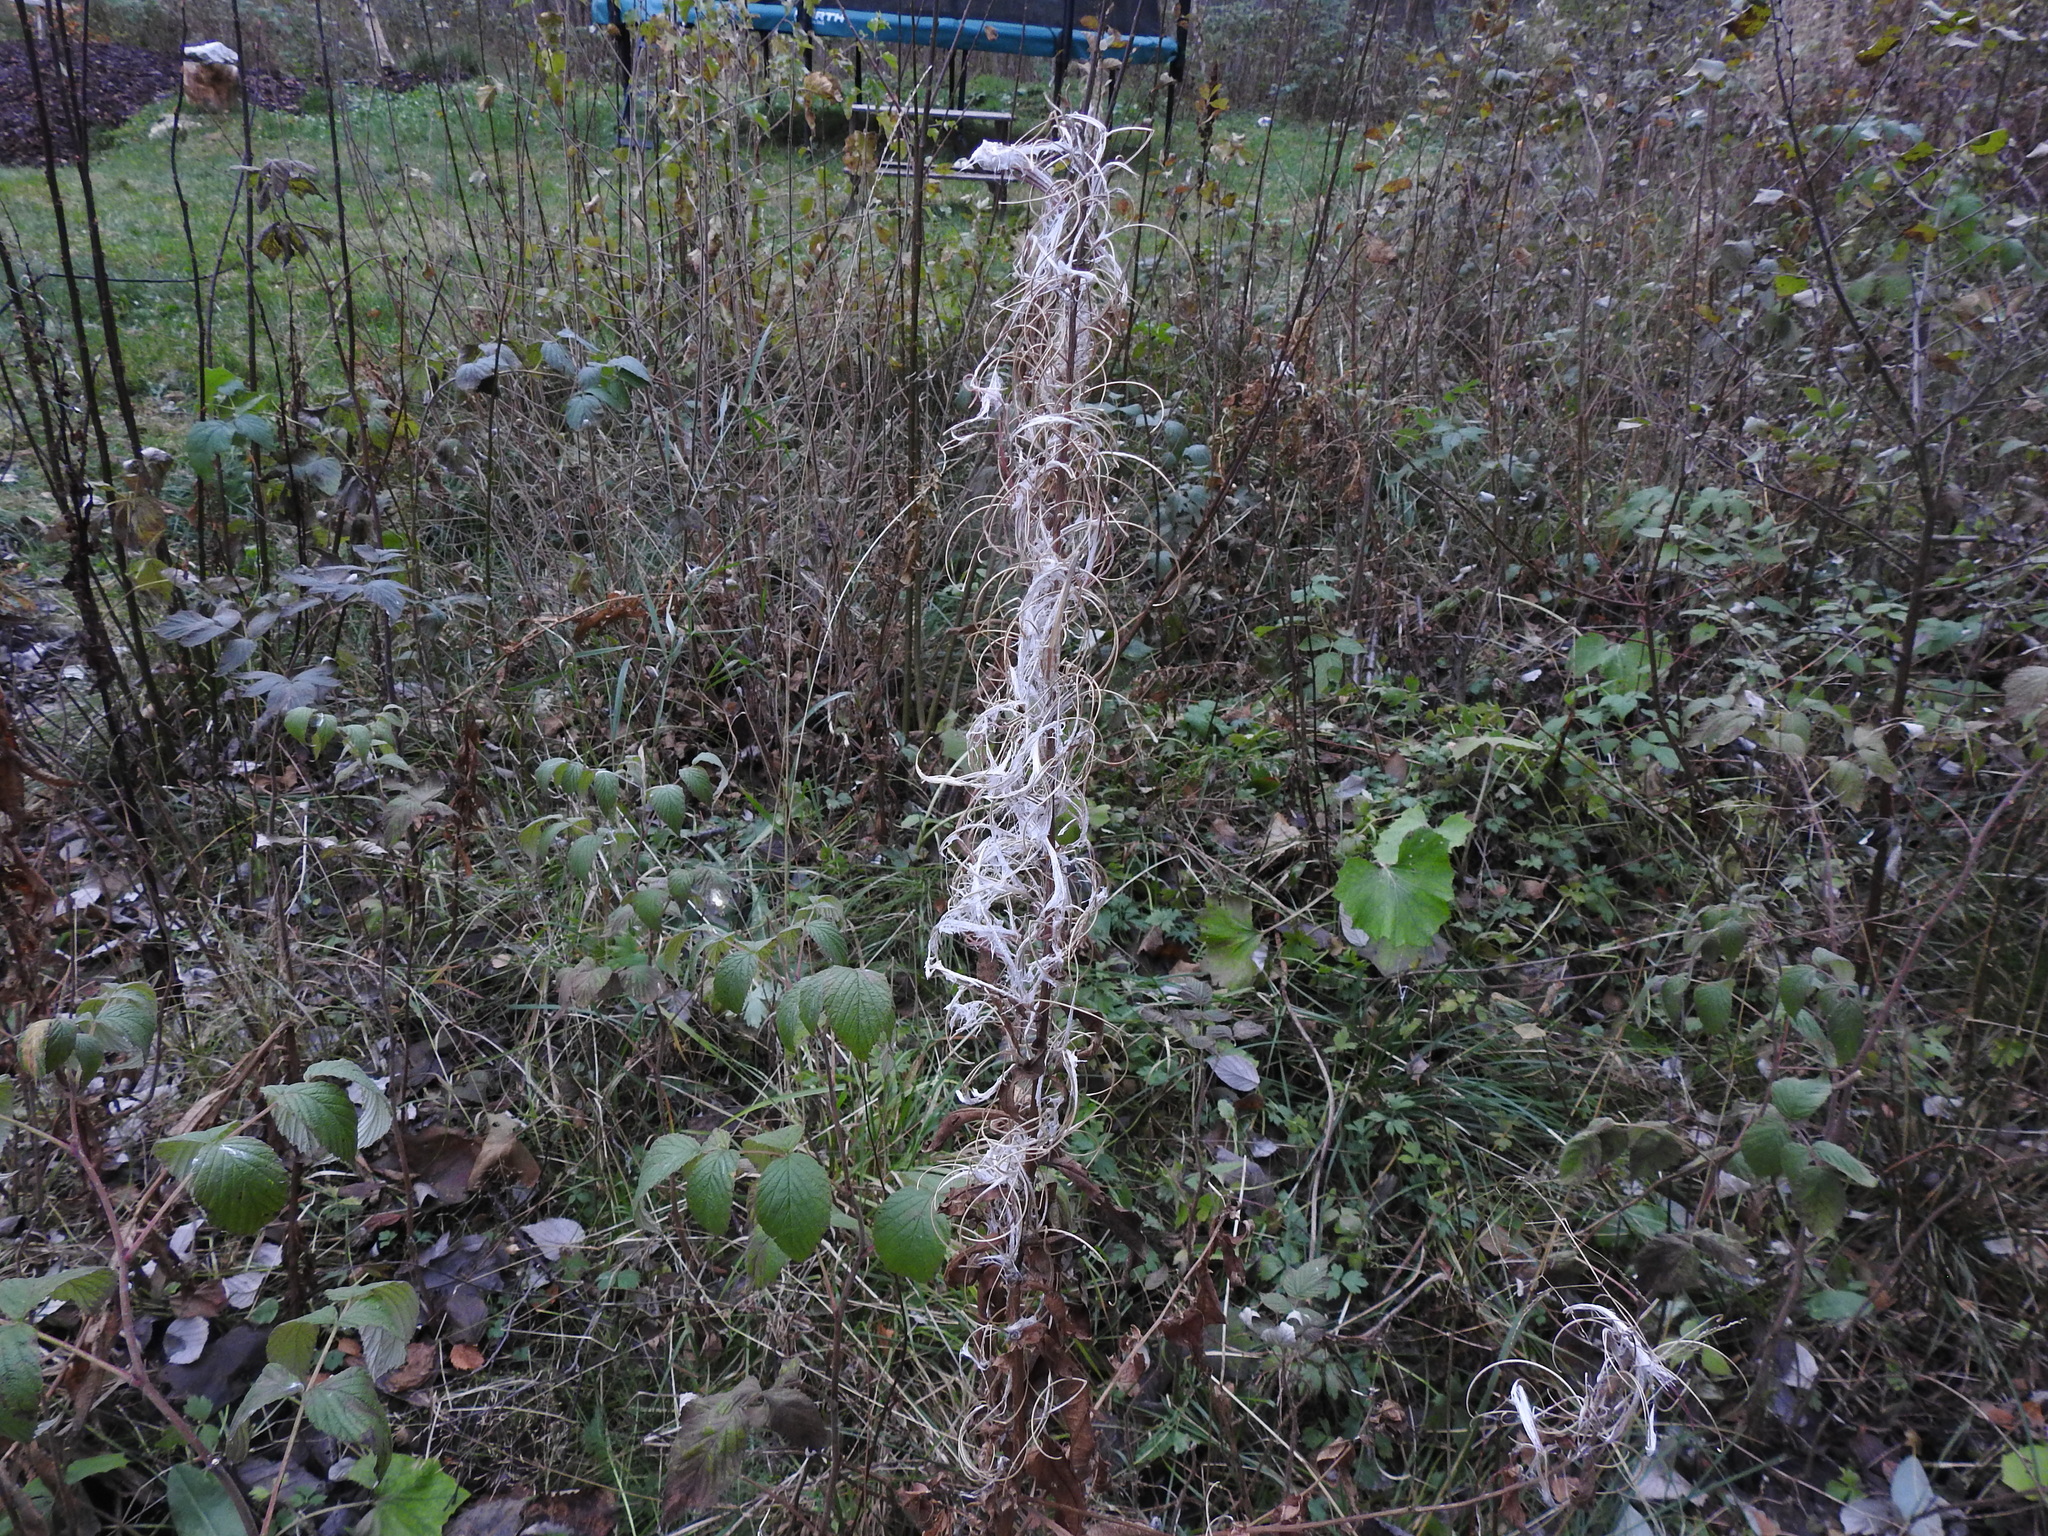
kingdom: Plantae
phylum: Tracheophyta
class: Magnoliopsida
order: Myrtales
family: Onagraceae
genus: Chamaenerion
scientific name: Chamaenerion angustifolium
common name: Fireweed
